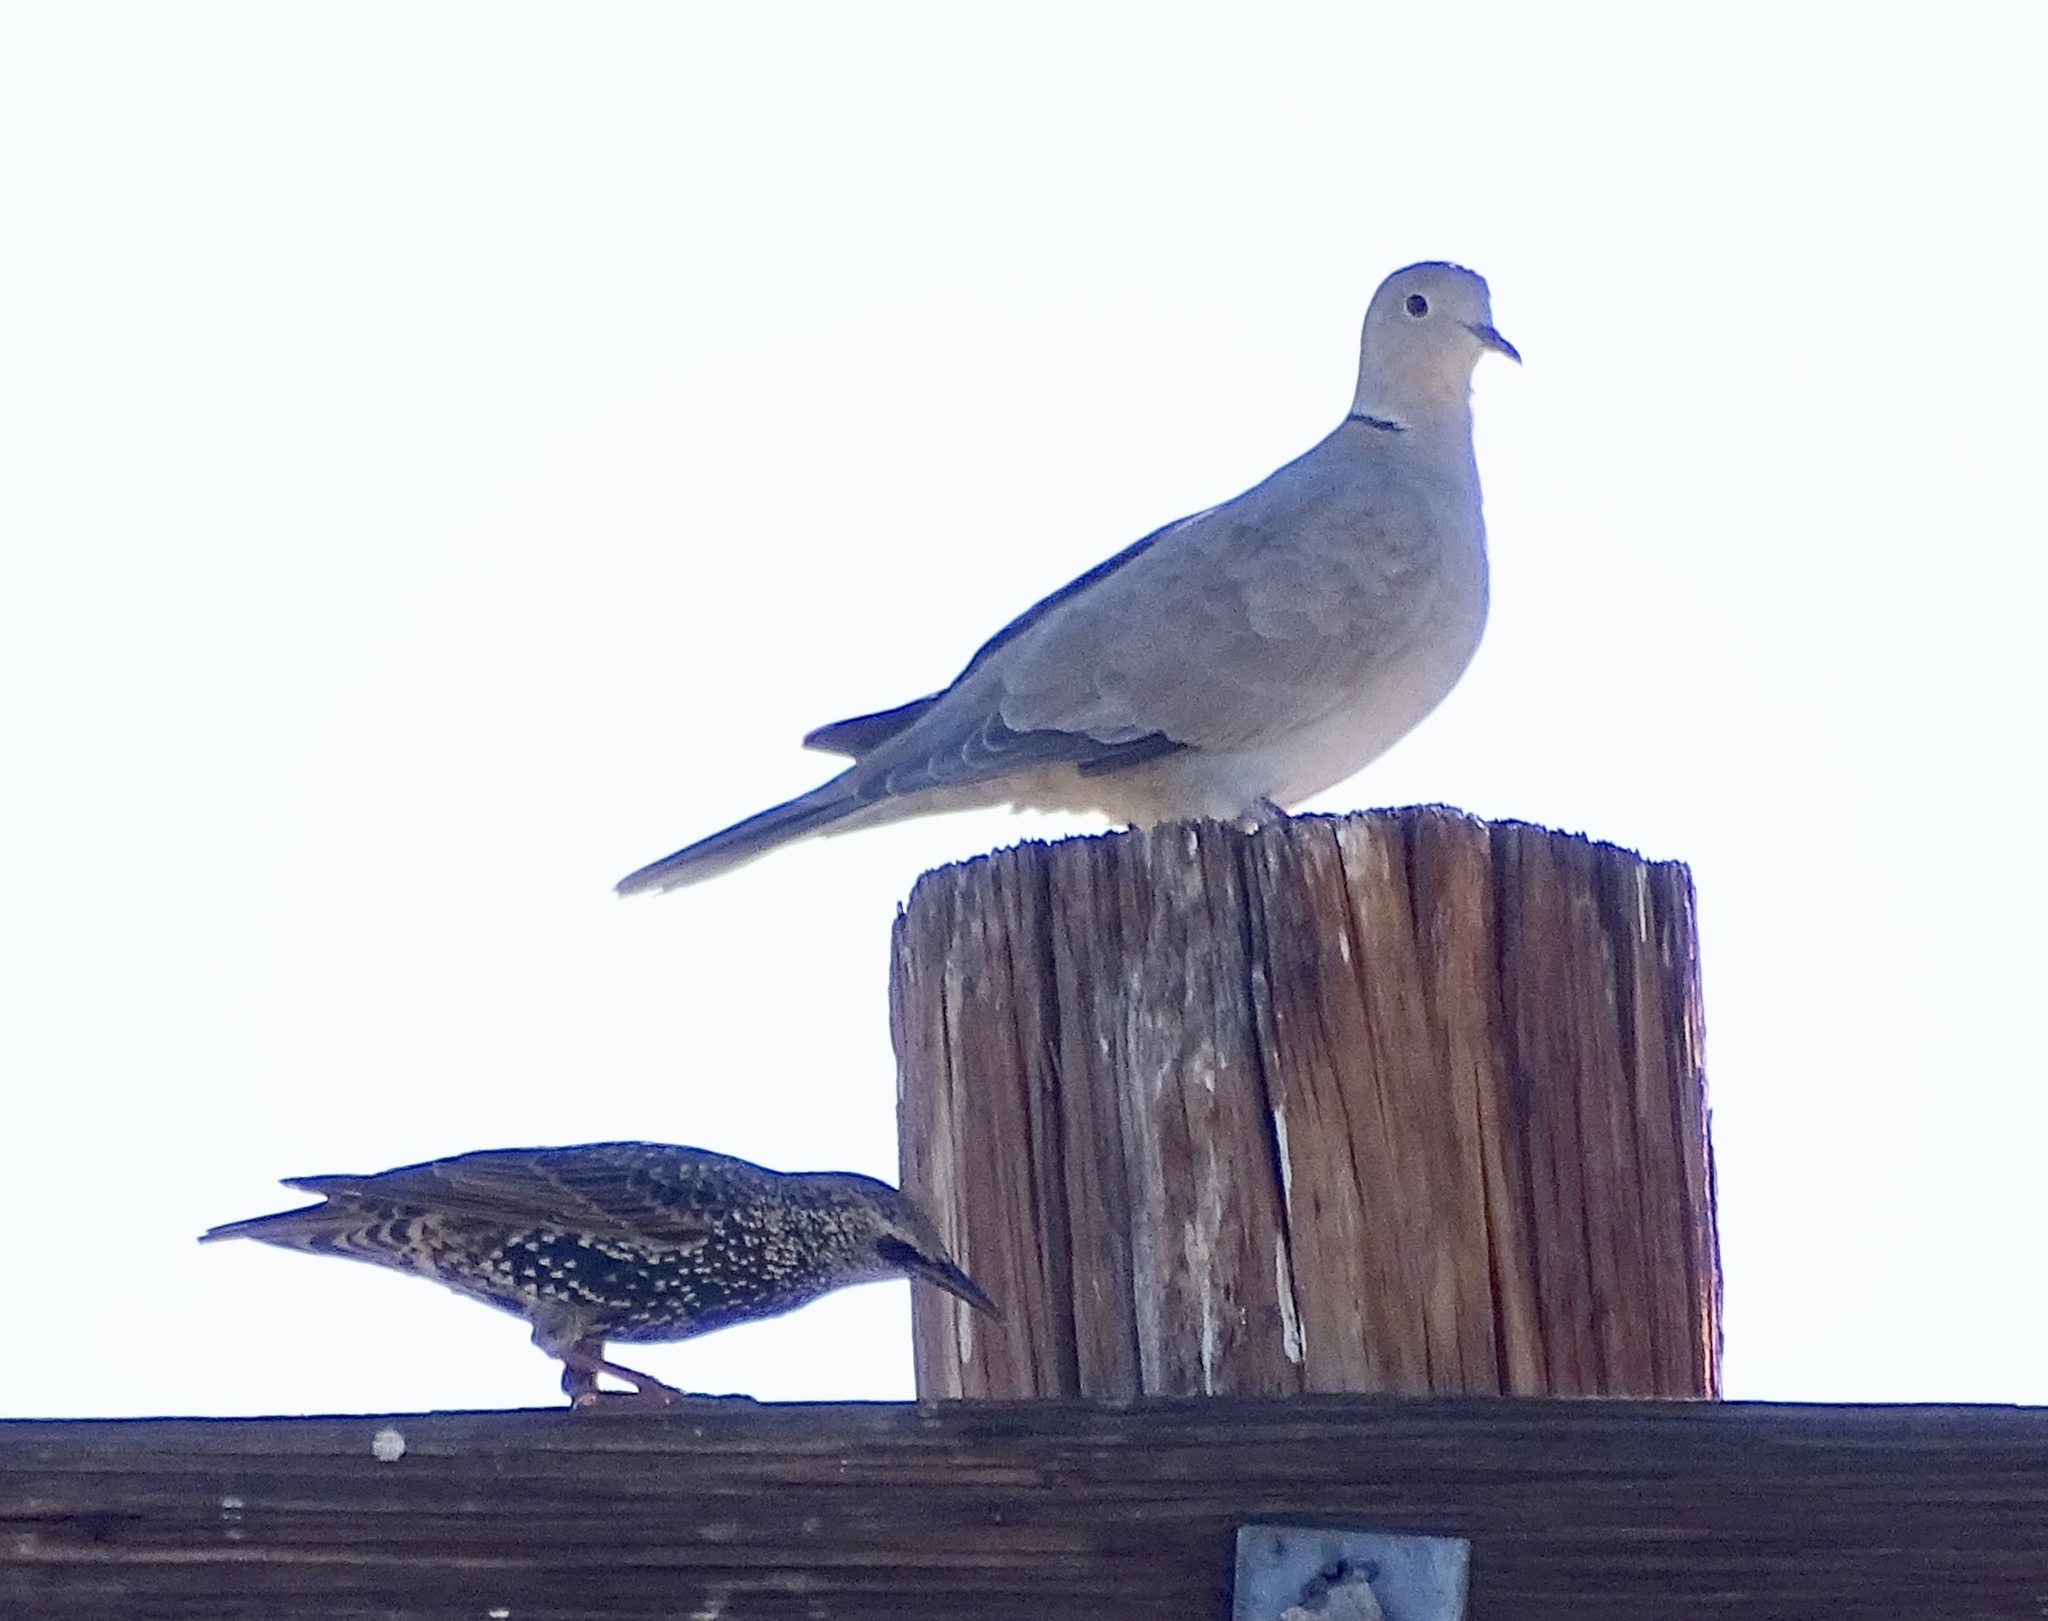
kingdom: Animalia
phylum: Chordata
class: Aves
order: Passeriformes
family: Sturnidae
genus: Sturnus
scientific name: Sturnus vulgaris
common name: Common starling
